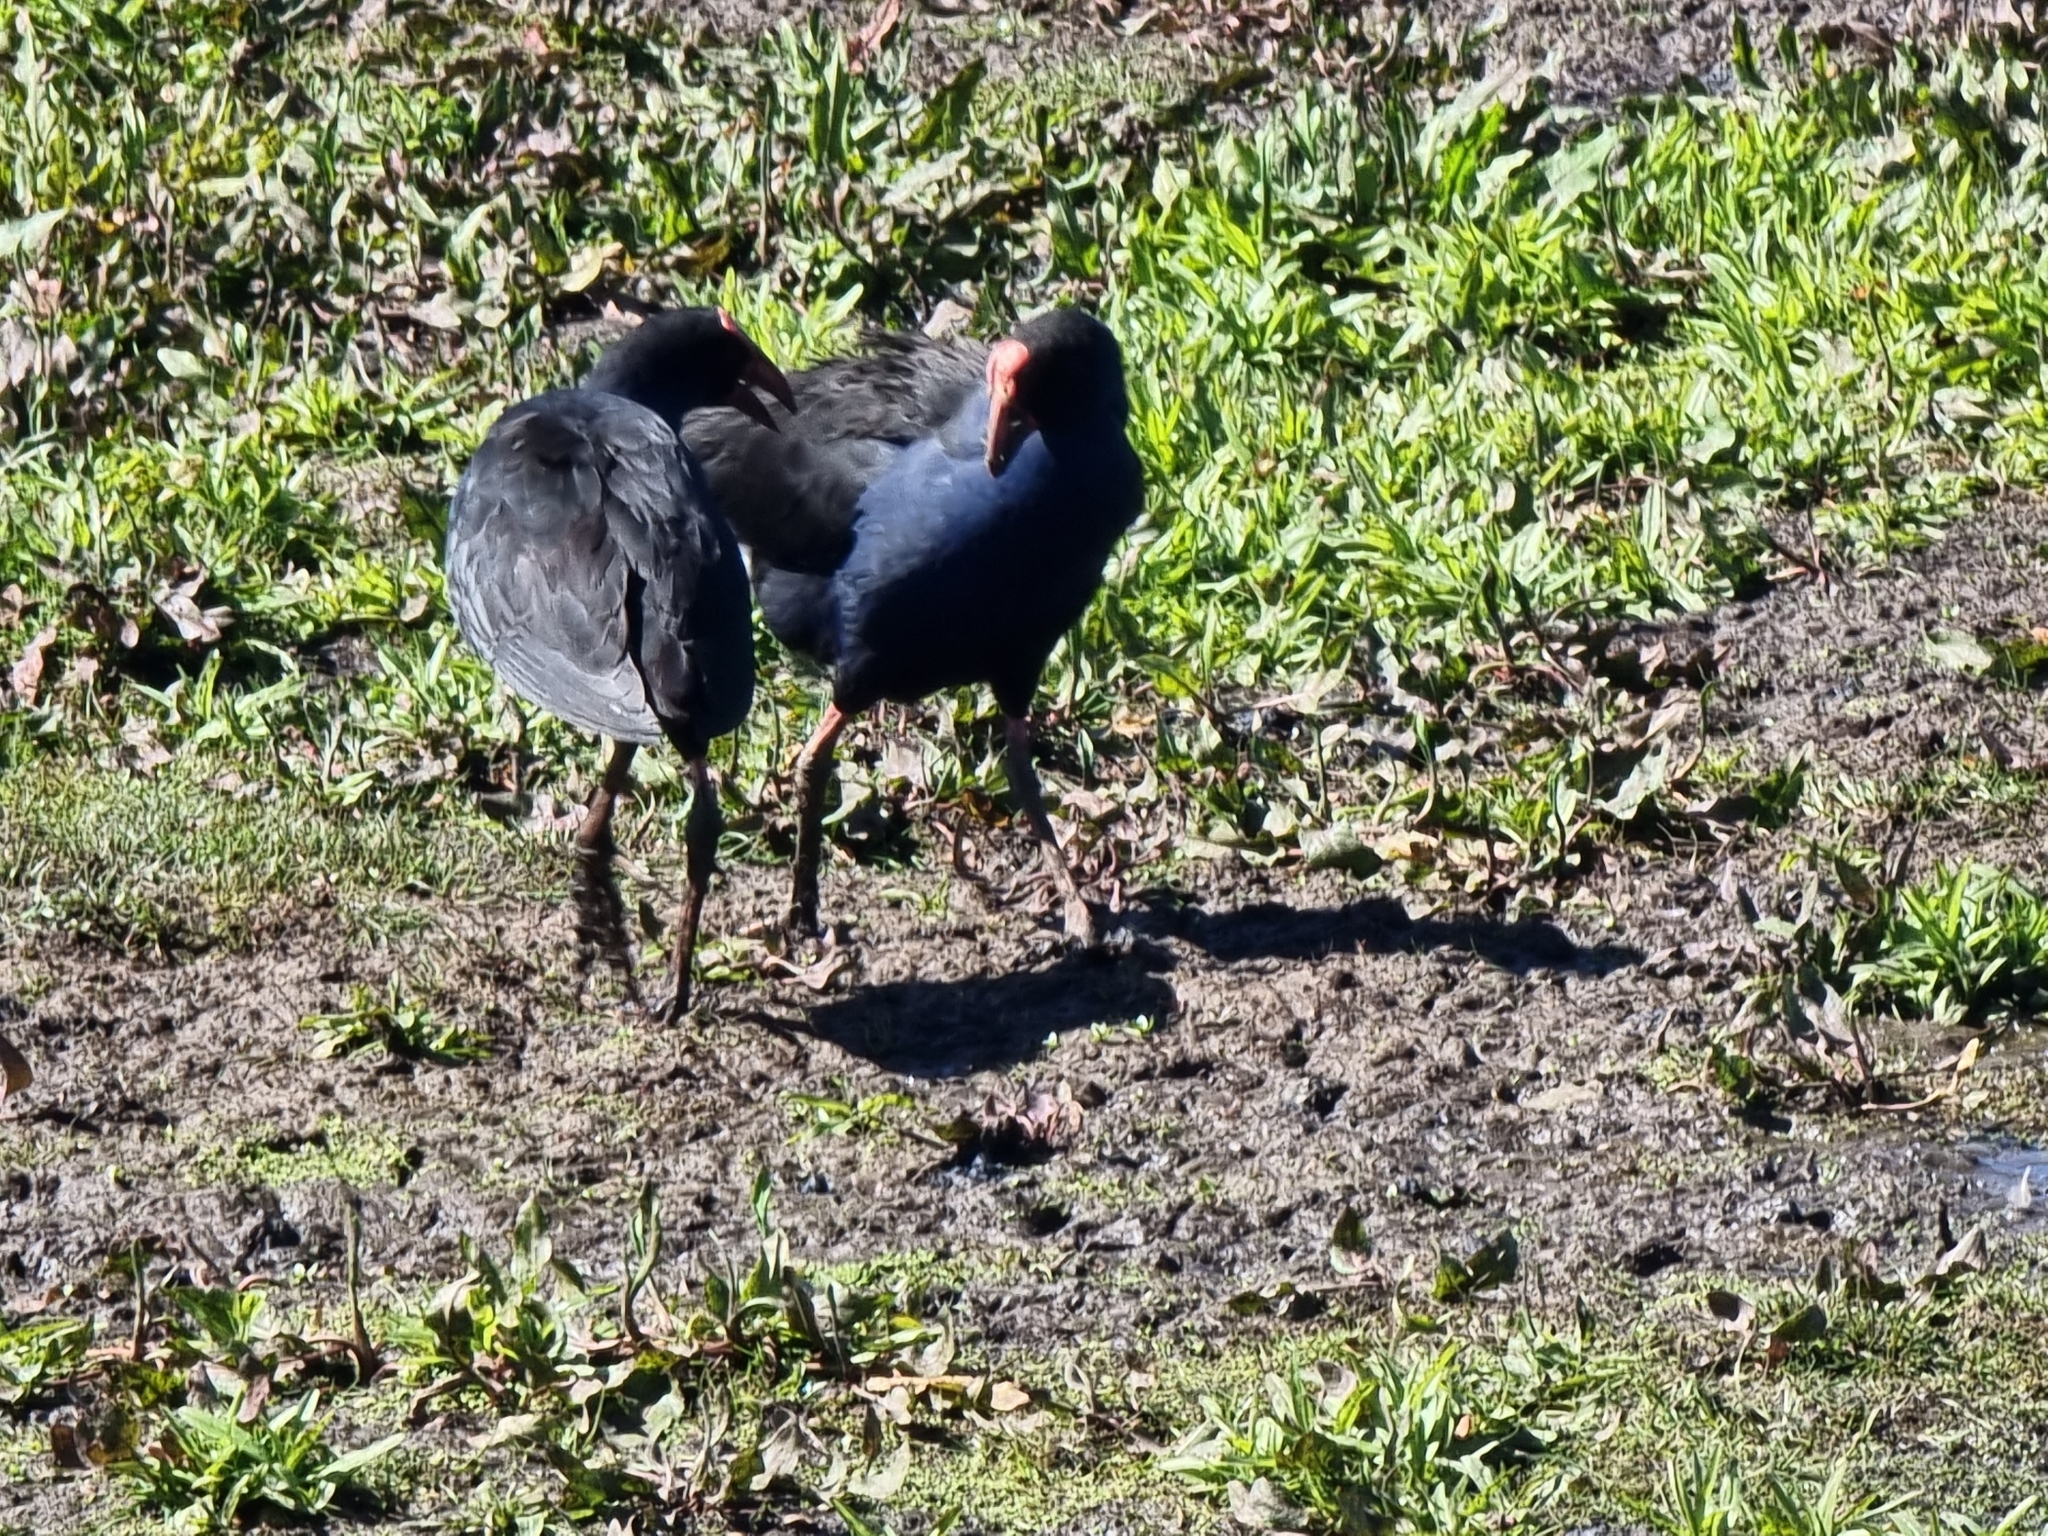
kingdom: Animalia
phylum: Chordata
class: Aves
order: Gruiformes
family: Rallidae
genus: Porphyrio
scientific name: Porphyrio melanotus
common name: Australasian swamphen
